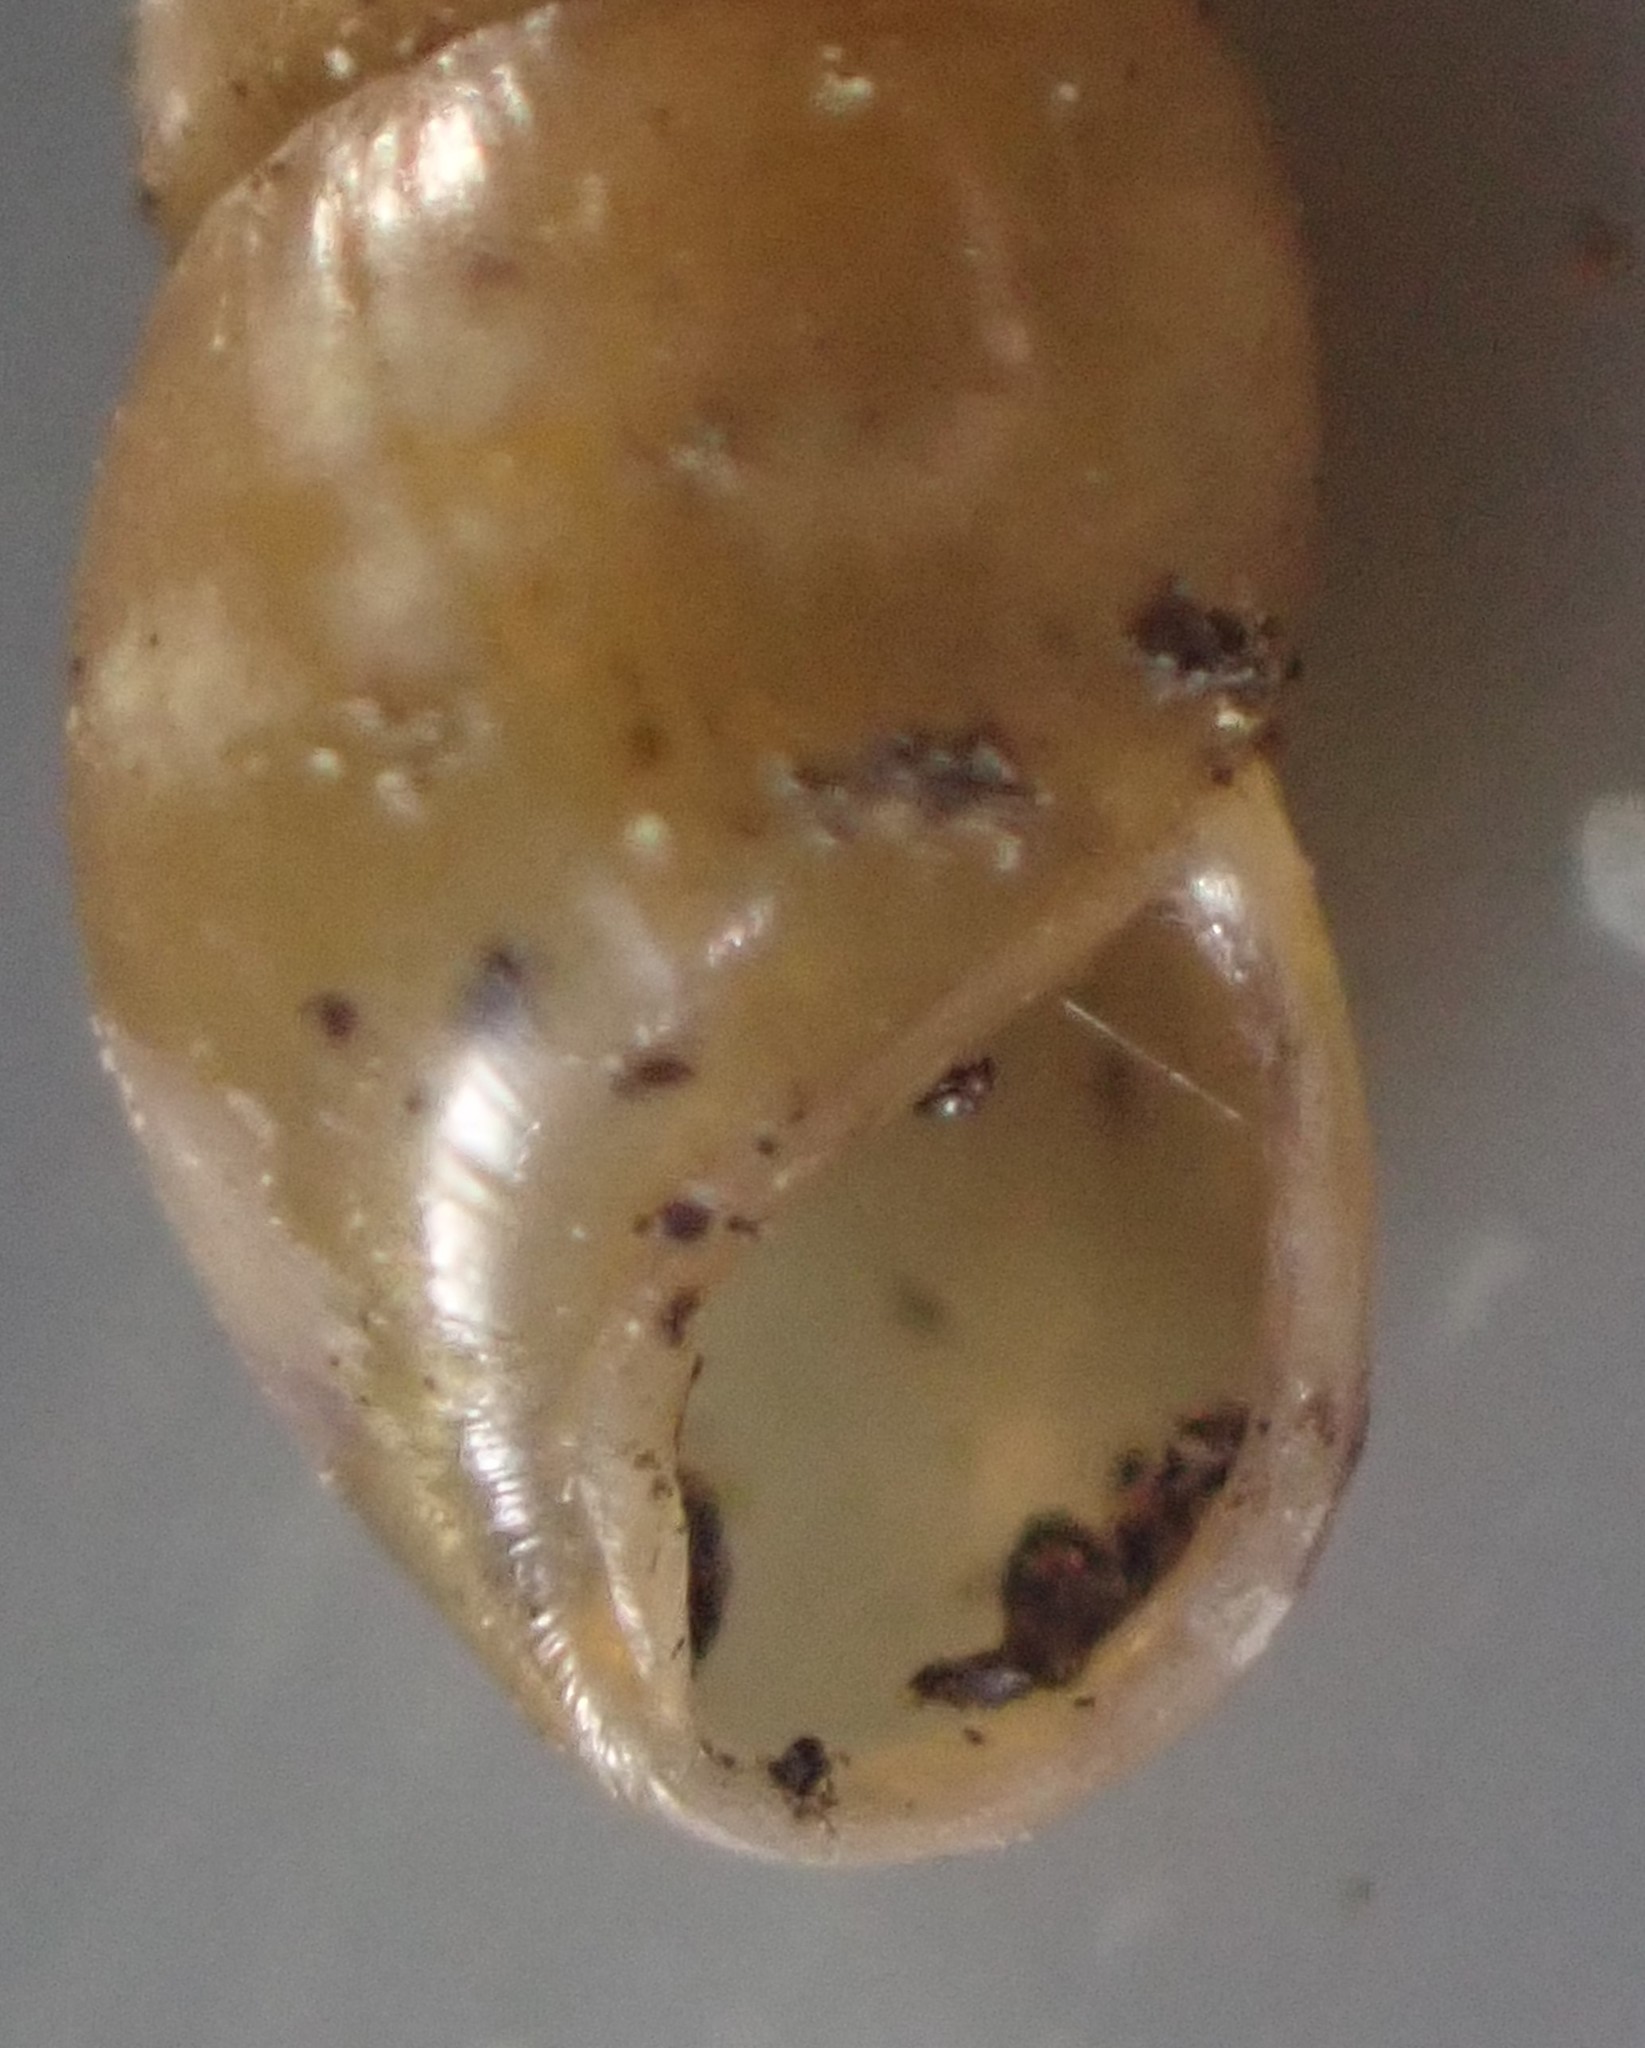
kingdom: Animalia
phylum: Mollusca
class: Gastropoda
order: Stylommatophora
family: Cochlicopidae
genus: Cochlicopa
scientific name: Cochlicopa lubrica
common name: Glossy pillar snail
